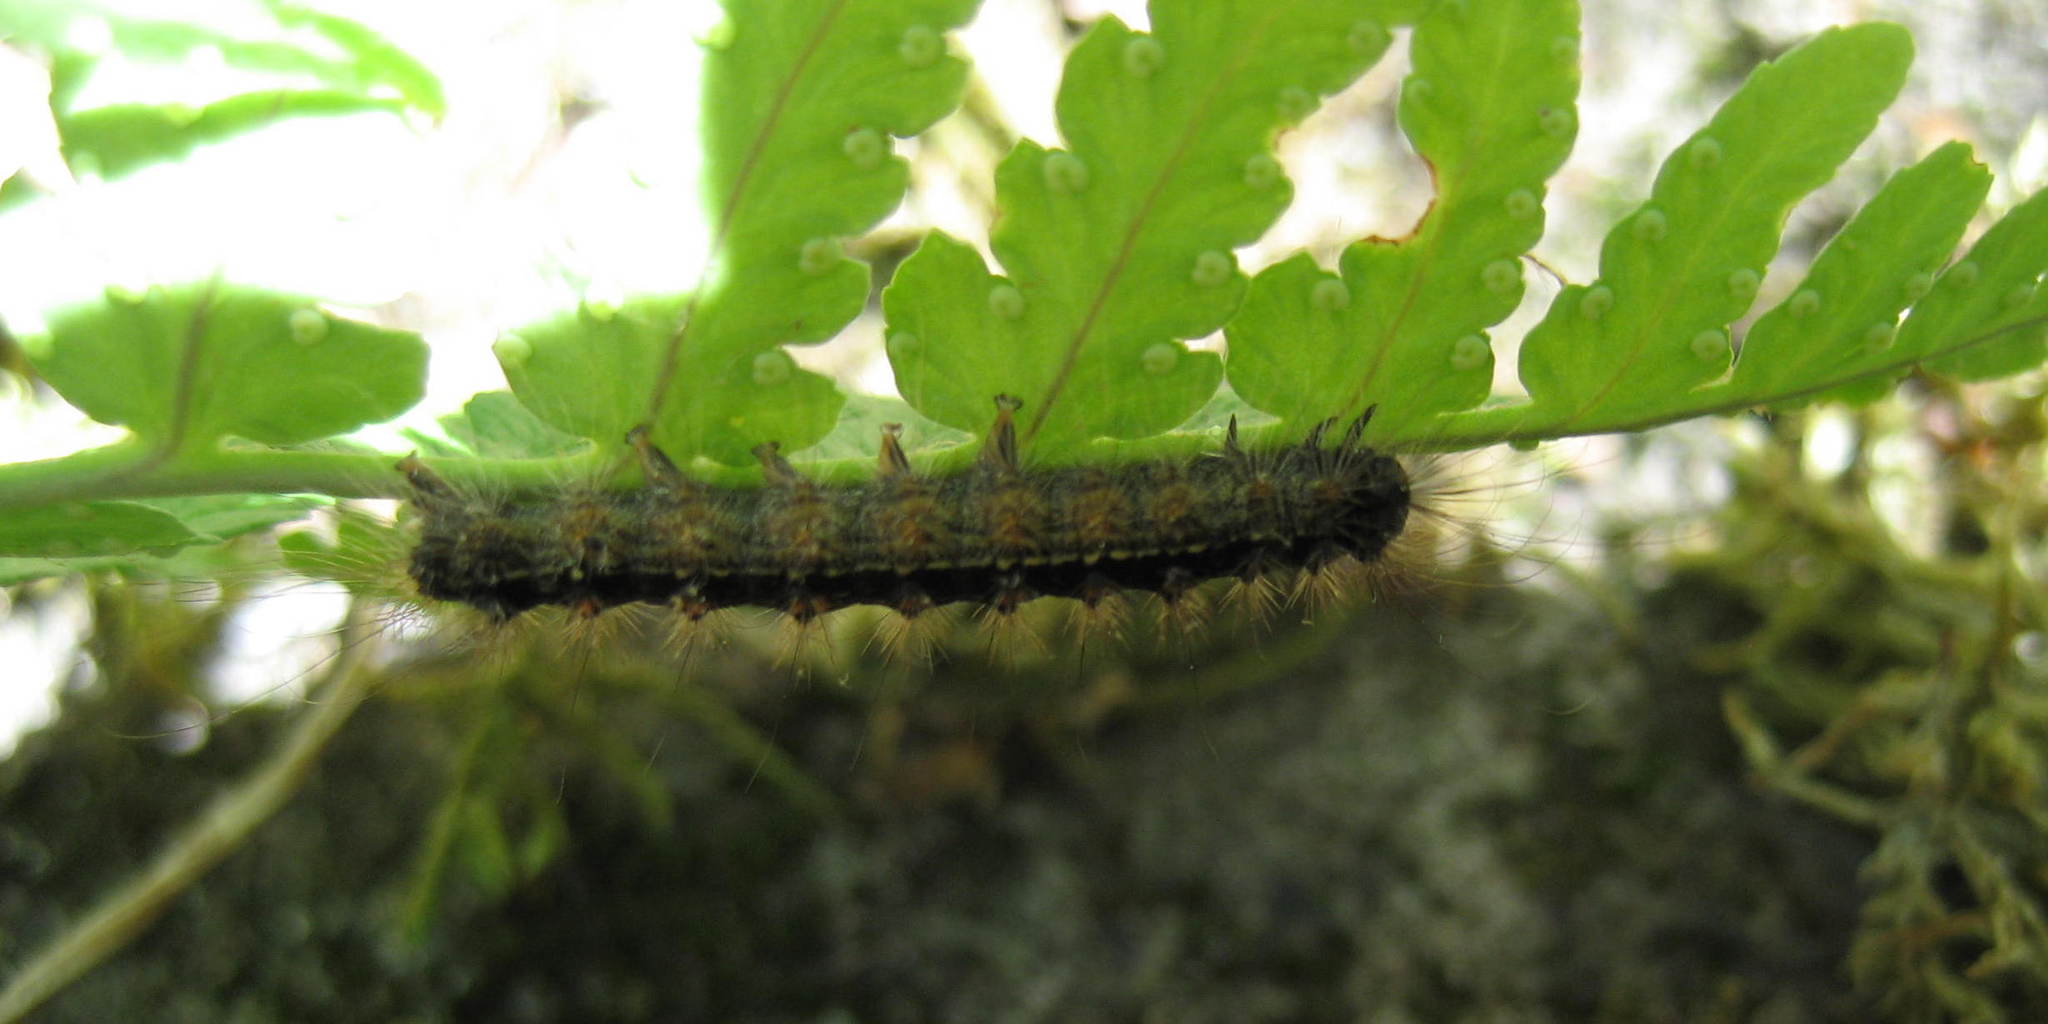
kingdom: Animalia
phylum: Arthropoda
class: Insecta
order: Lepidoptera
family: Erebidae
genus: Lymantria
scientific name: Lymantria dispar
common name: Gypsy moth
